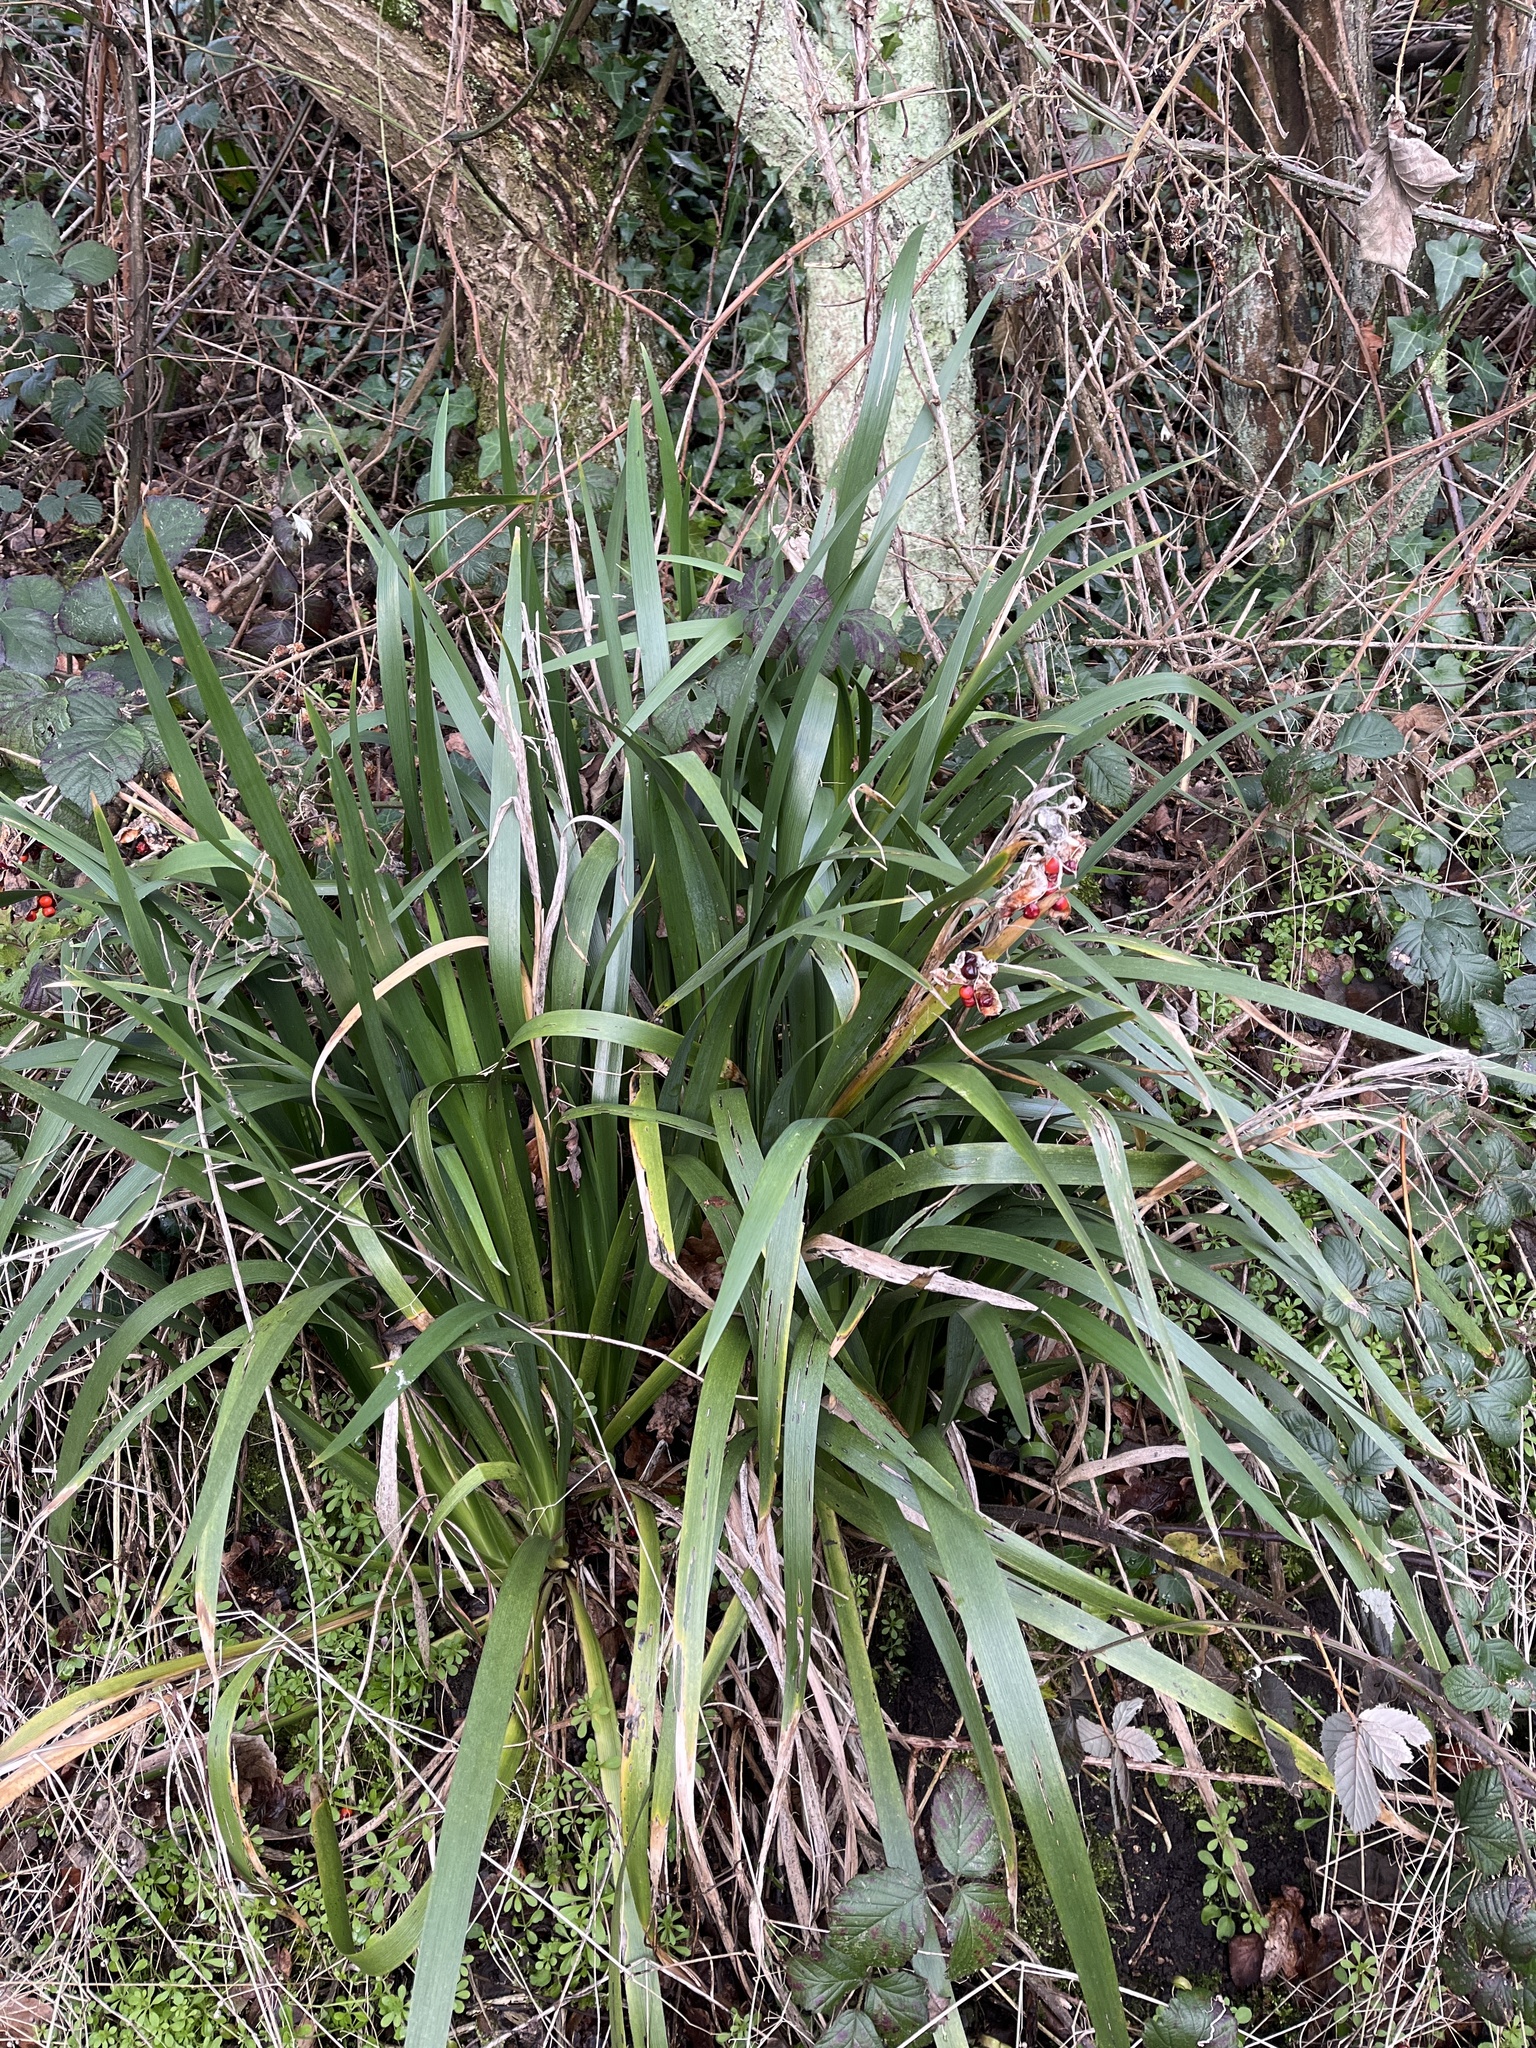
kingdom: Plantae
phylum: Tracheophyta
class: Liliopsida
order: Asparagales
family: Iridaceae
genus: Iris
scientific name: Iris foetidissima
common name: Stinking iris
